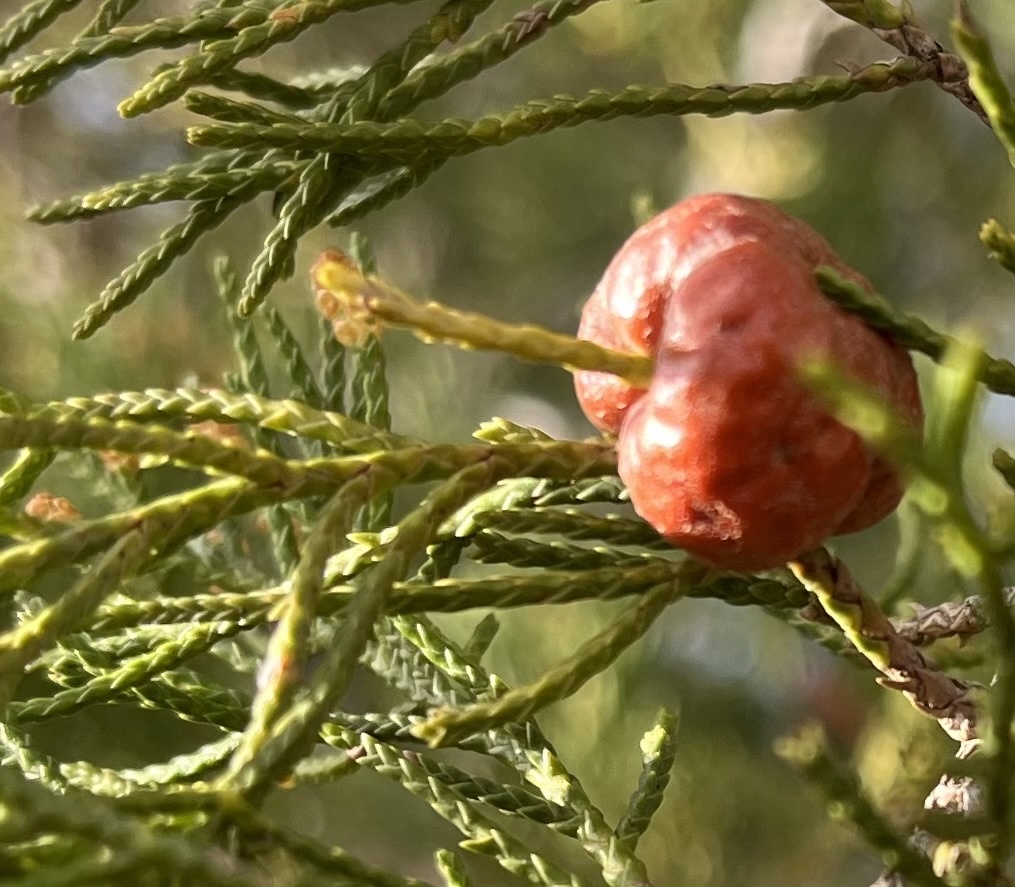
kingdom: Fungi
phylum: Basidiomycota
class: Pucciniomycetes
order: Pucciniales
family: Gymnosporangiaceae
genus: Gymnosporangium
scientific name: Gymnosporangium juniperi-virginianae
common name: Juniper-apple rust
